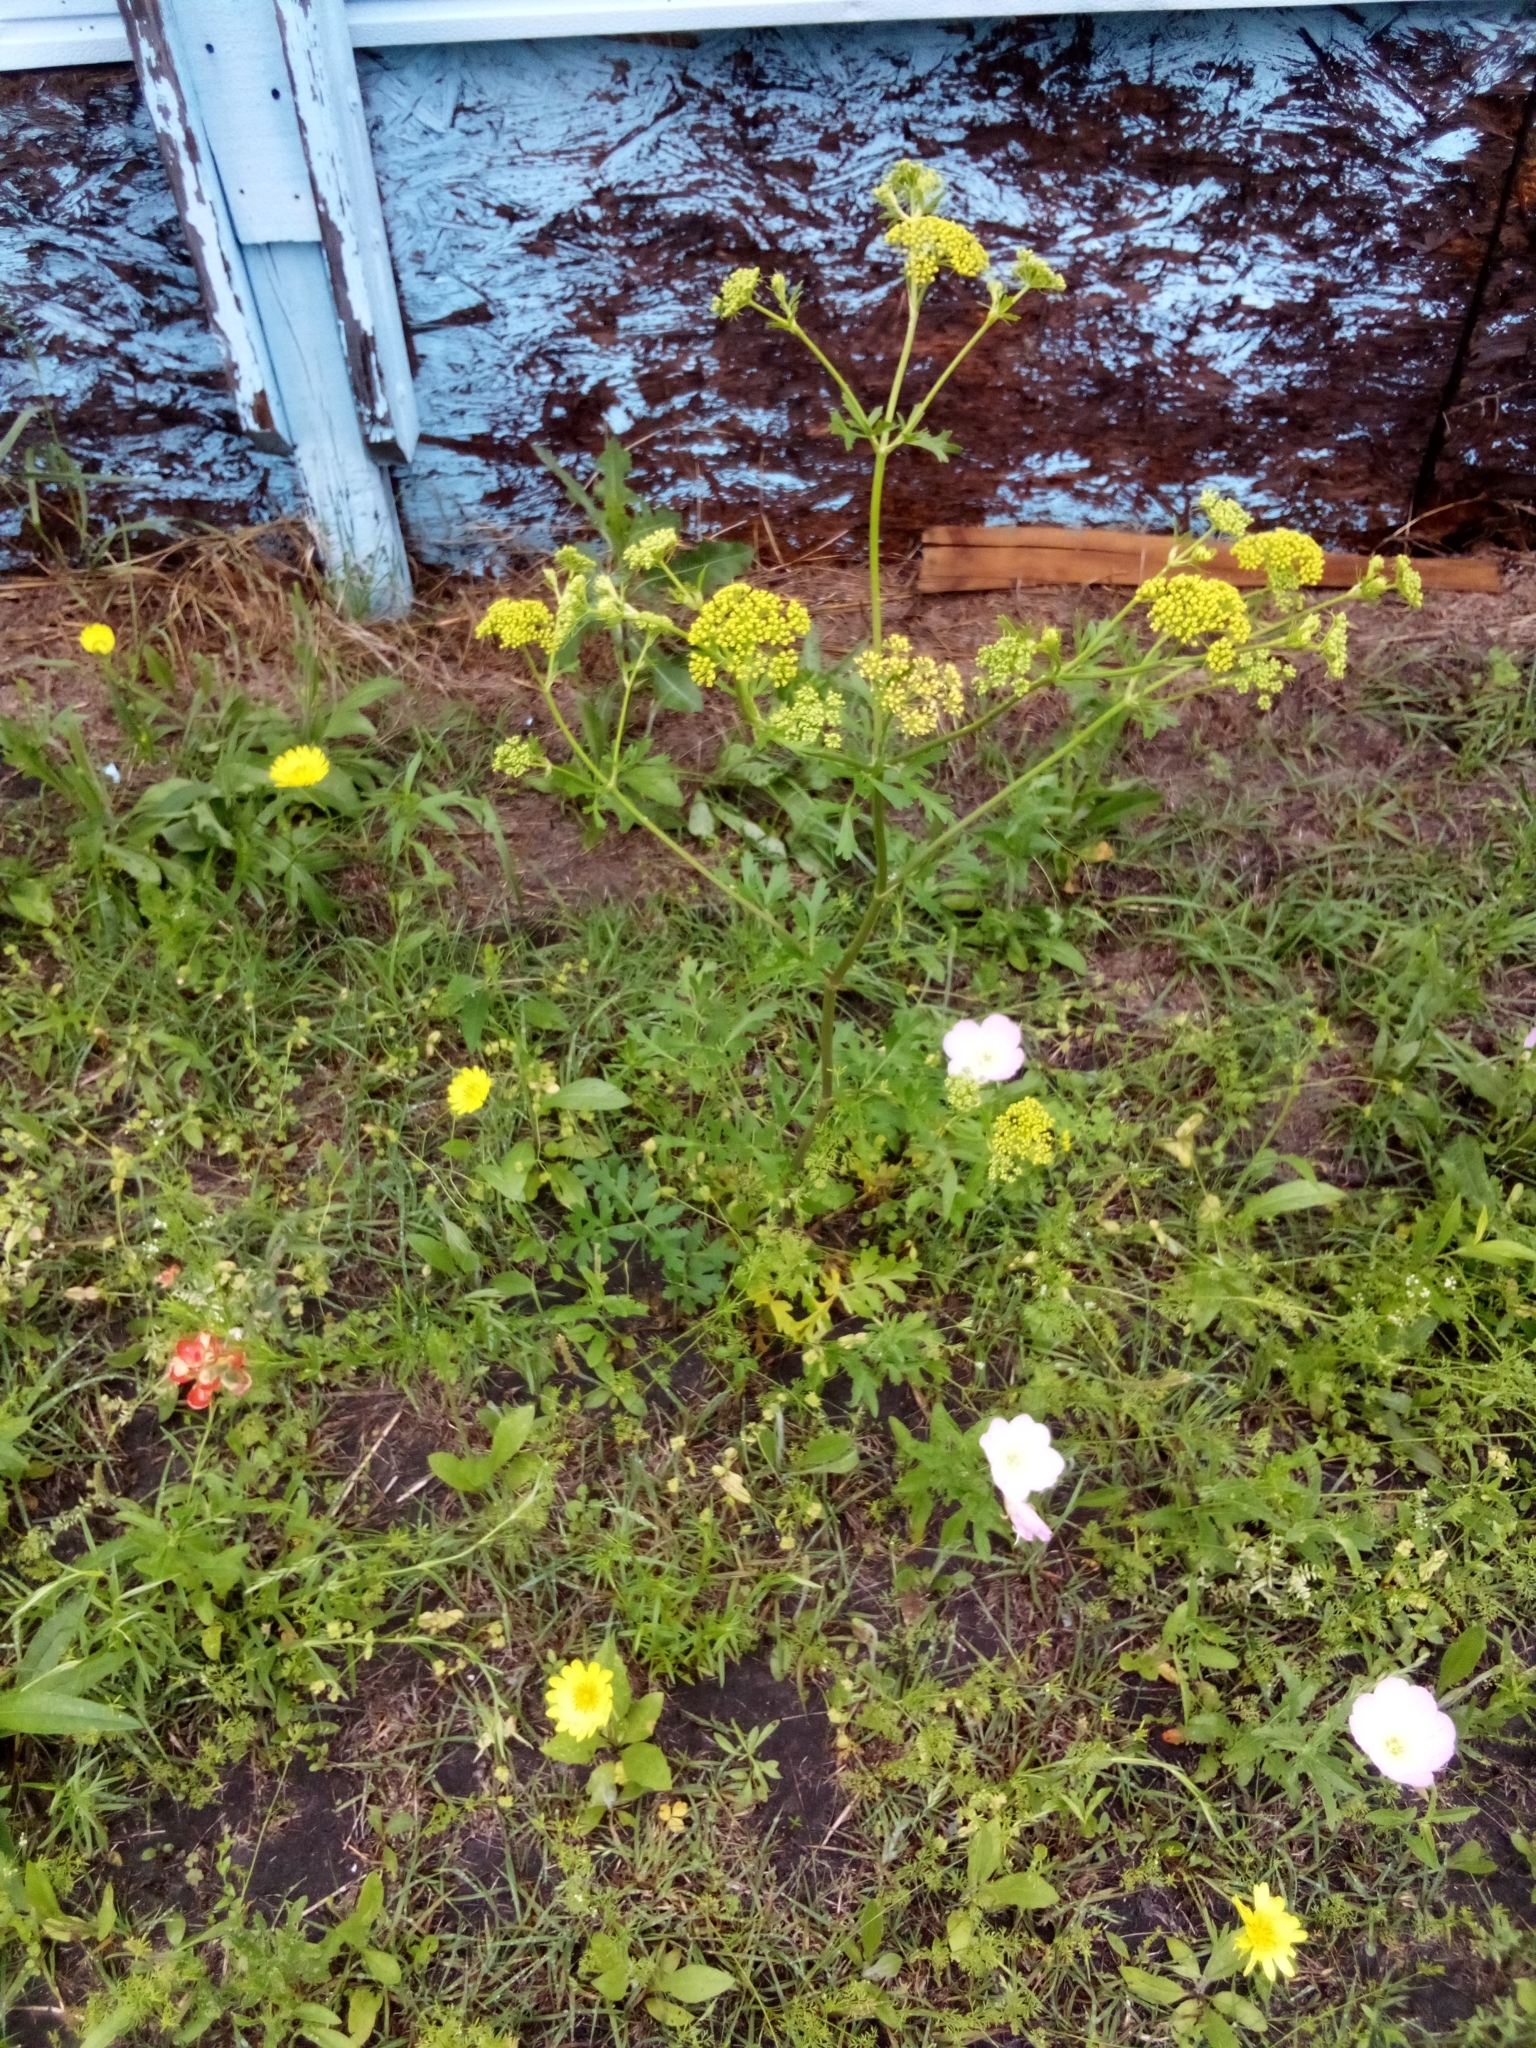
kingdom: Plantae
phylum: Tracheophyta
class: Magnoliopsida
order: Apiales
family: Apiaceae
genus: Polytaenia
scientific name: Polytaenia texana
